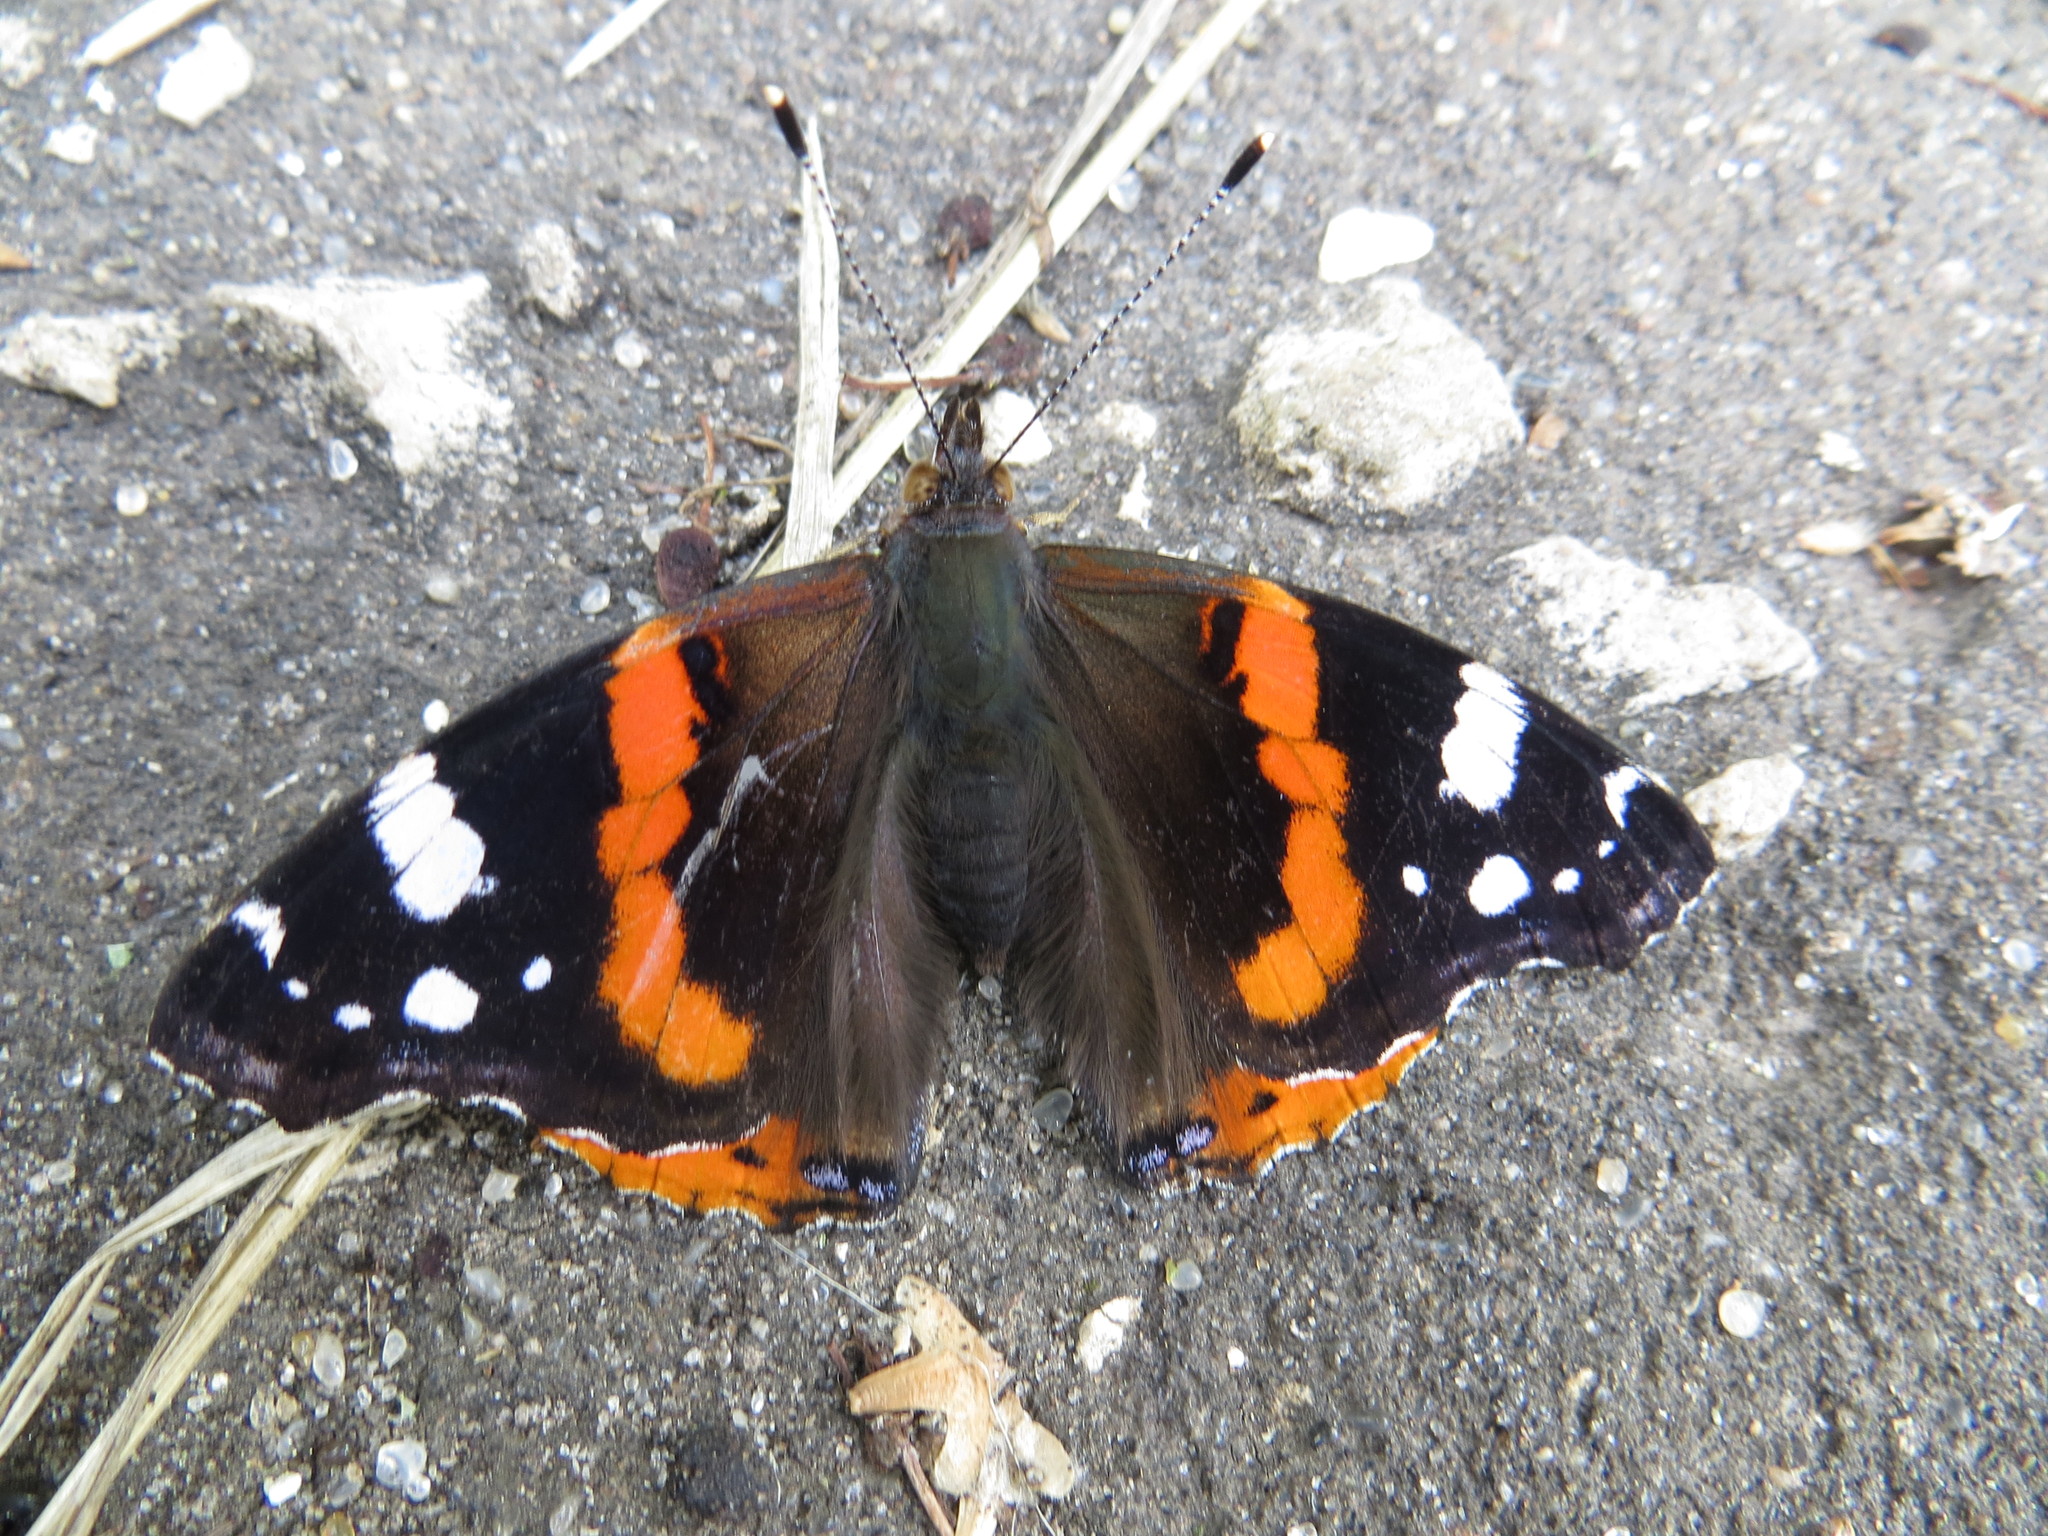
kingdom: Animalia
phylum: Arthropoda
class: Insecta
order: Lepidoptera
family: Nymphalidae
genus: Vanessa
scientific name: Vanessa atalanta
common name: Red admiral
